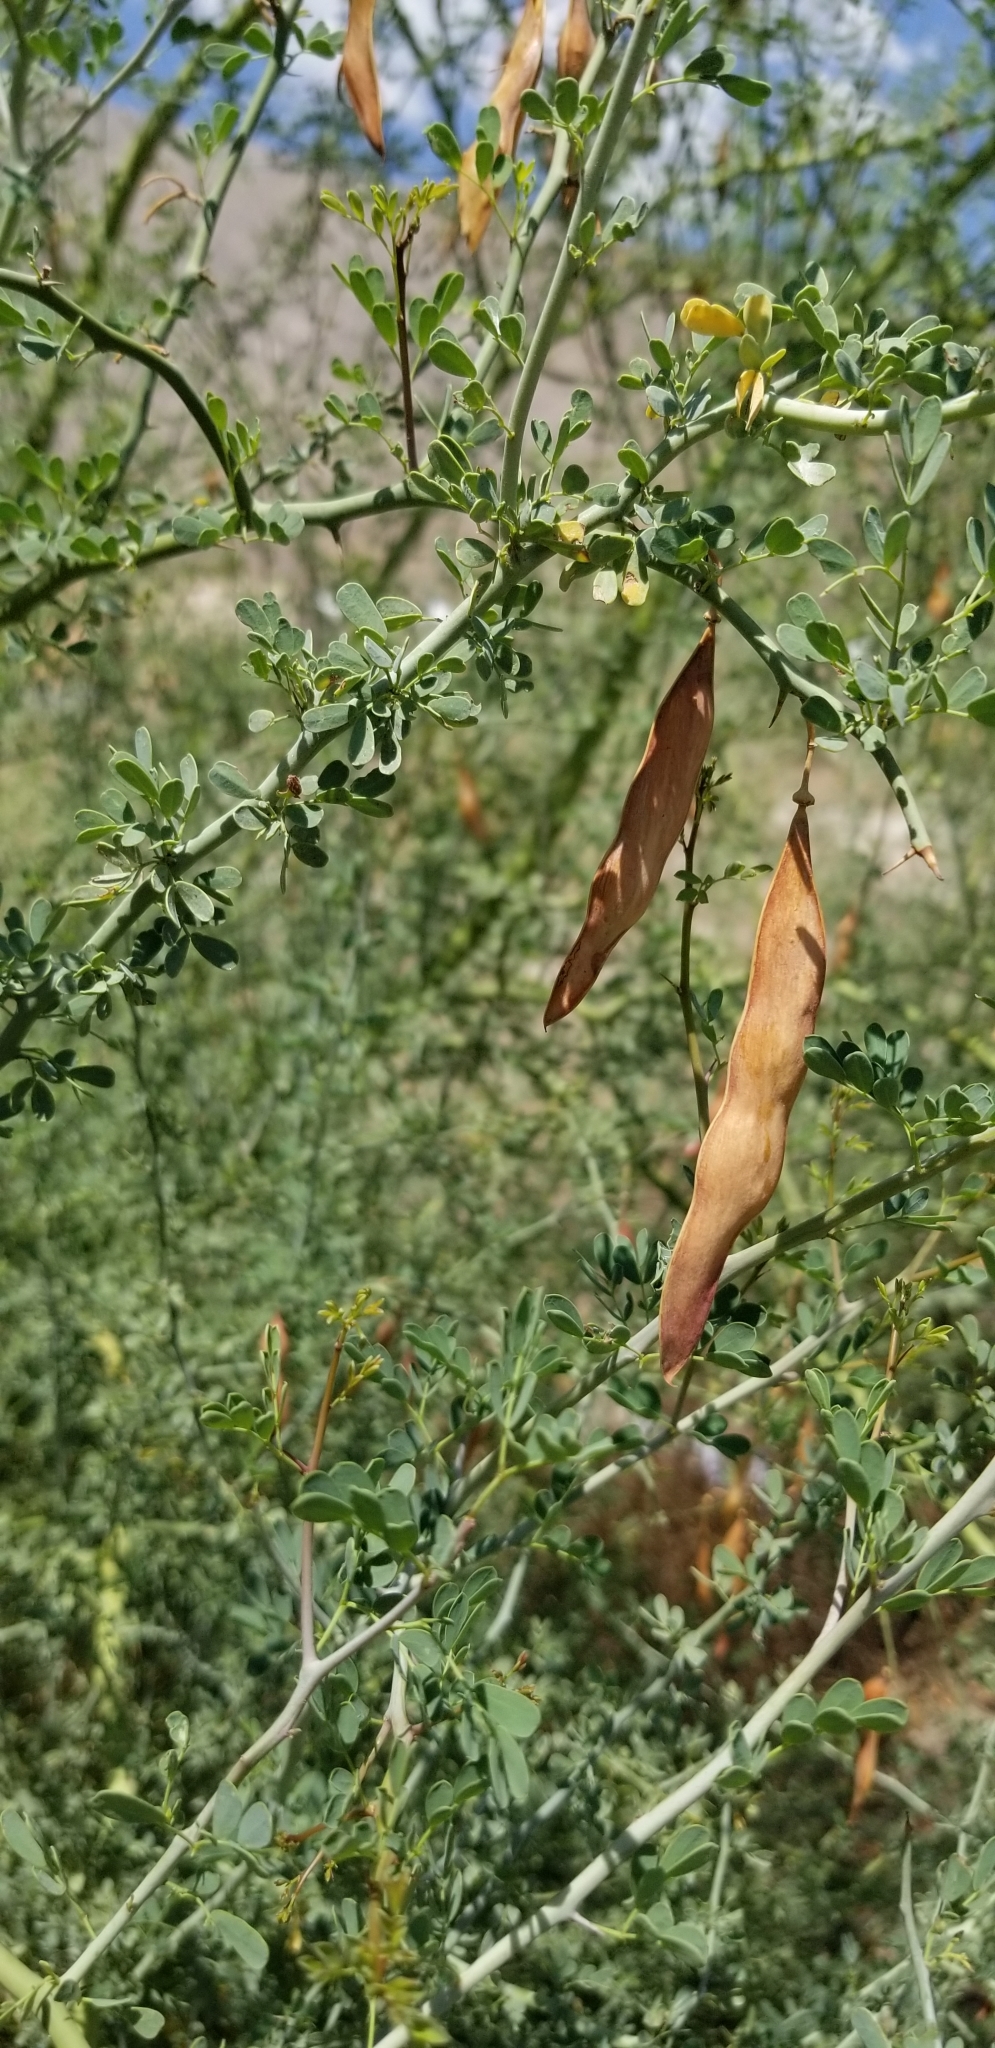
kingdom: Plantae
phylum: Tracheophyta
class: Magnoliopsida
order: Fabales
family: Fabaceae
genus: Parkinsonia
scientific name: Parkinsonia florida
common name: Blue paloverde
